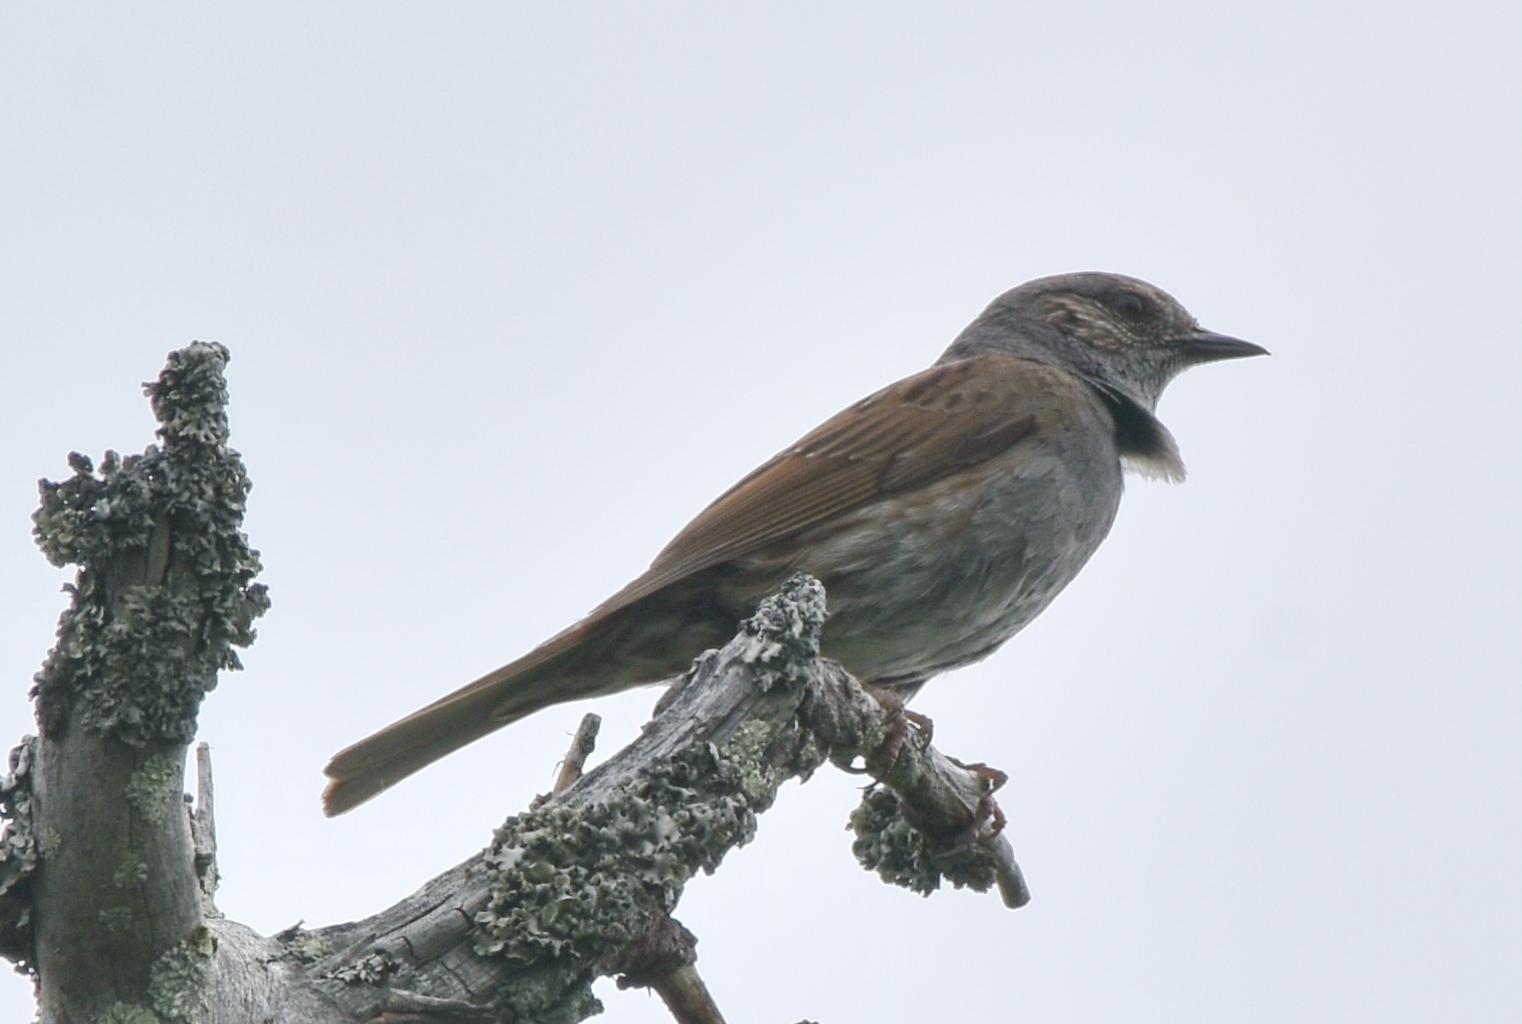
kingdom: Animalia
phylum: Chordata
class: Aves
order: Passeriformes
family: Prunellidae
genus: Prunella
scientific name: Prunella modularis
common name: Dunnock
